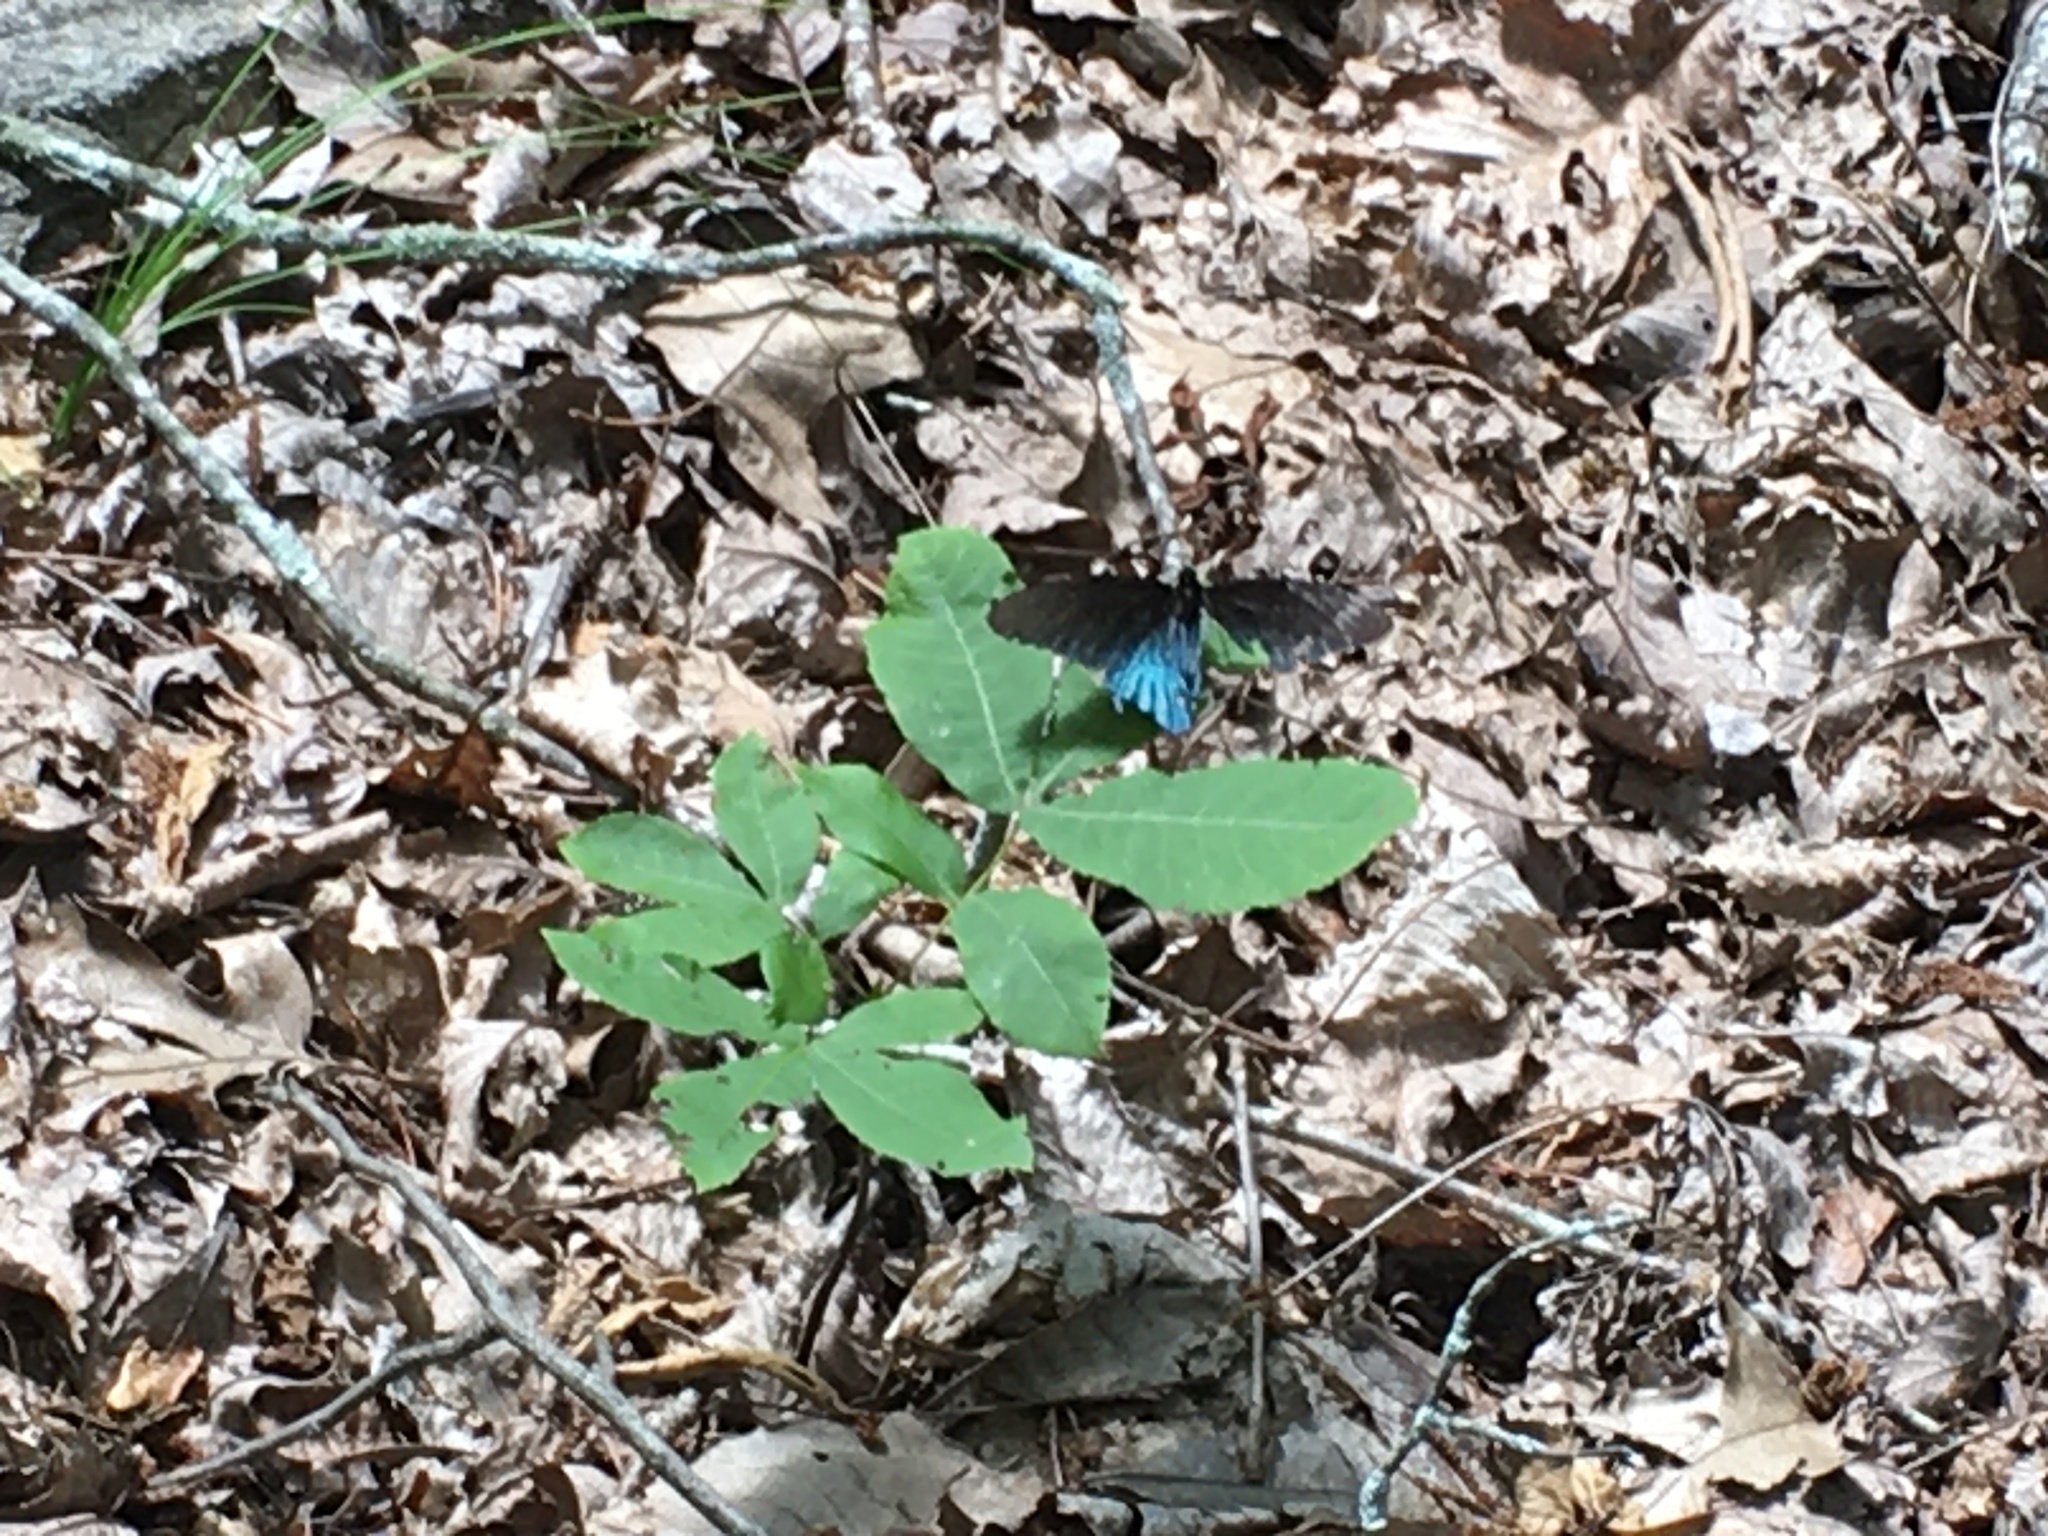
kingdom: Animalia
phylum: Arthropoda
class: Insecta
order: Lepidoptera
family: Papilionidae
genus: Battus
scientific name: Battus philenor
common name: Pipevine swallowtail
